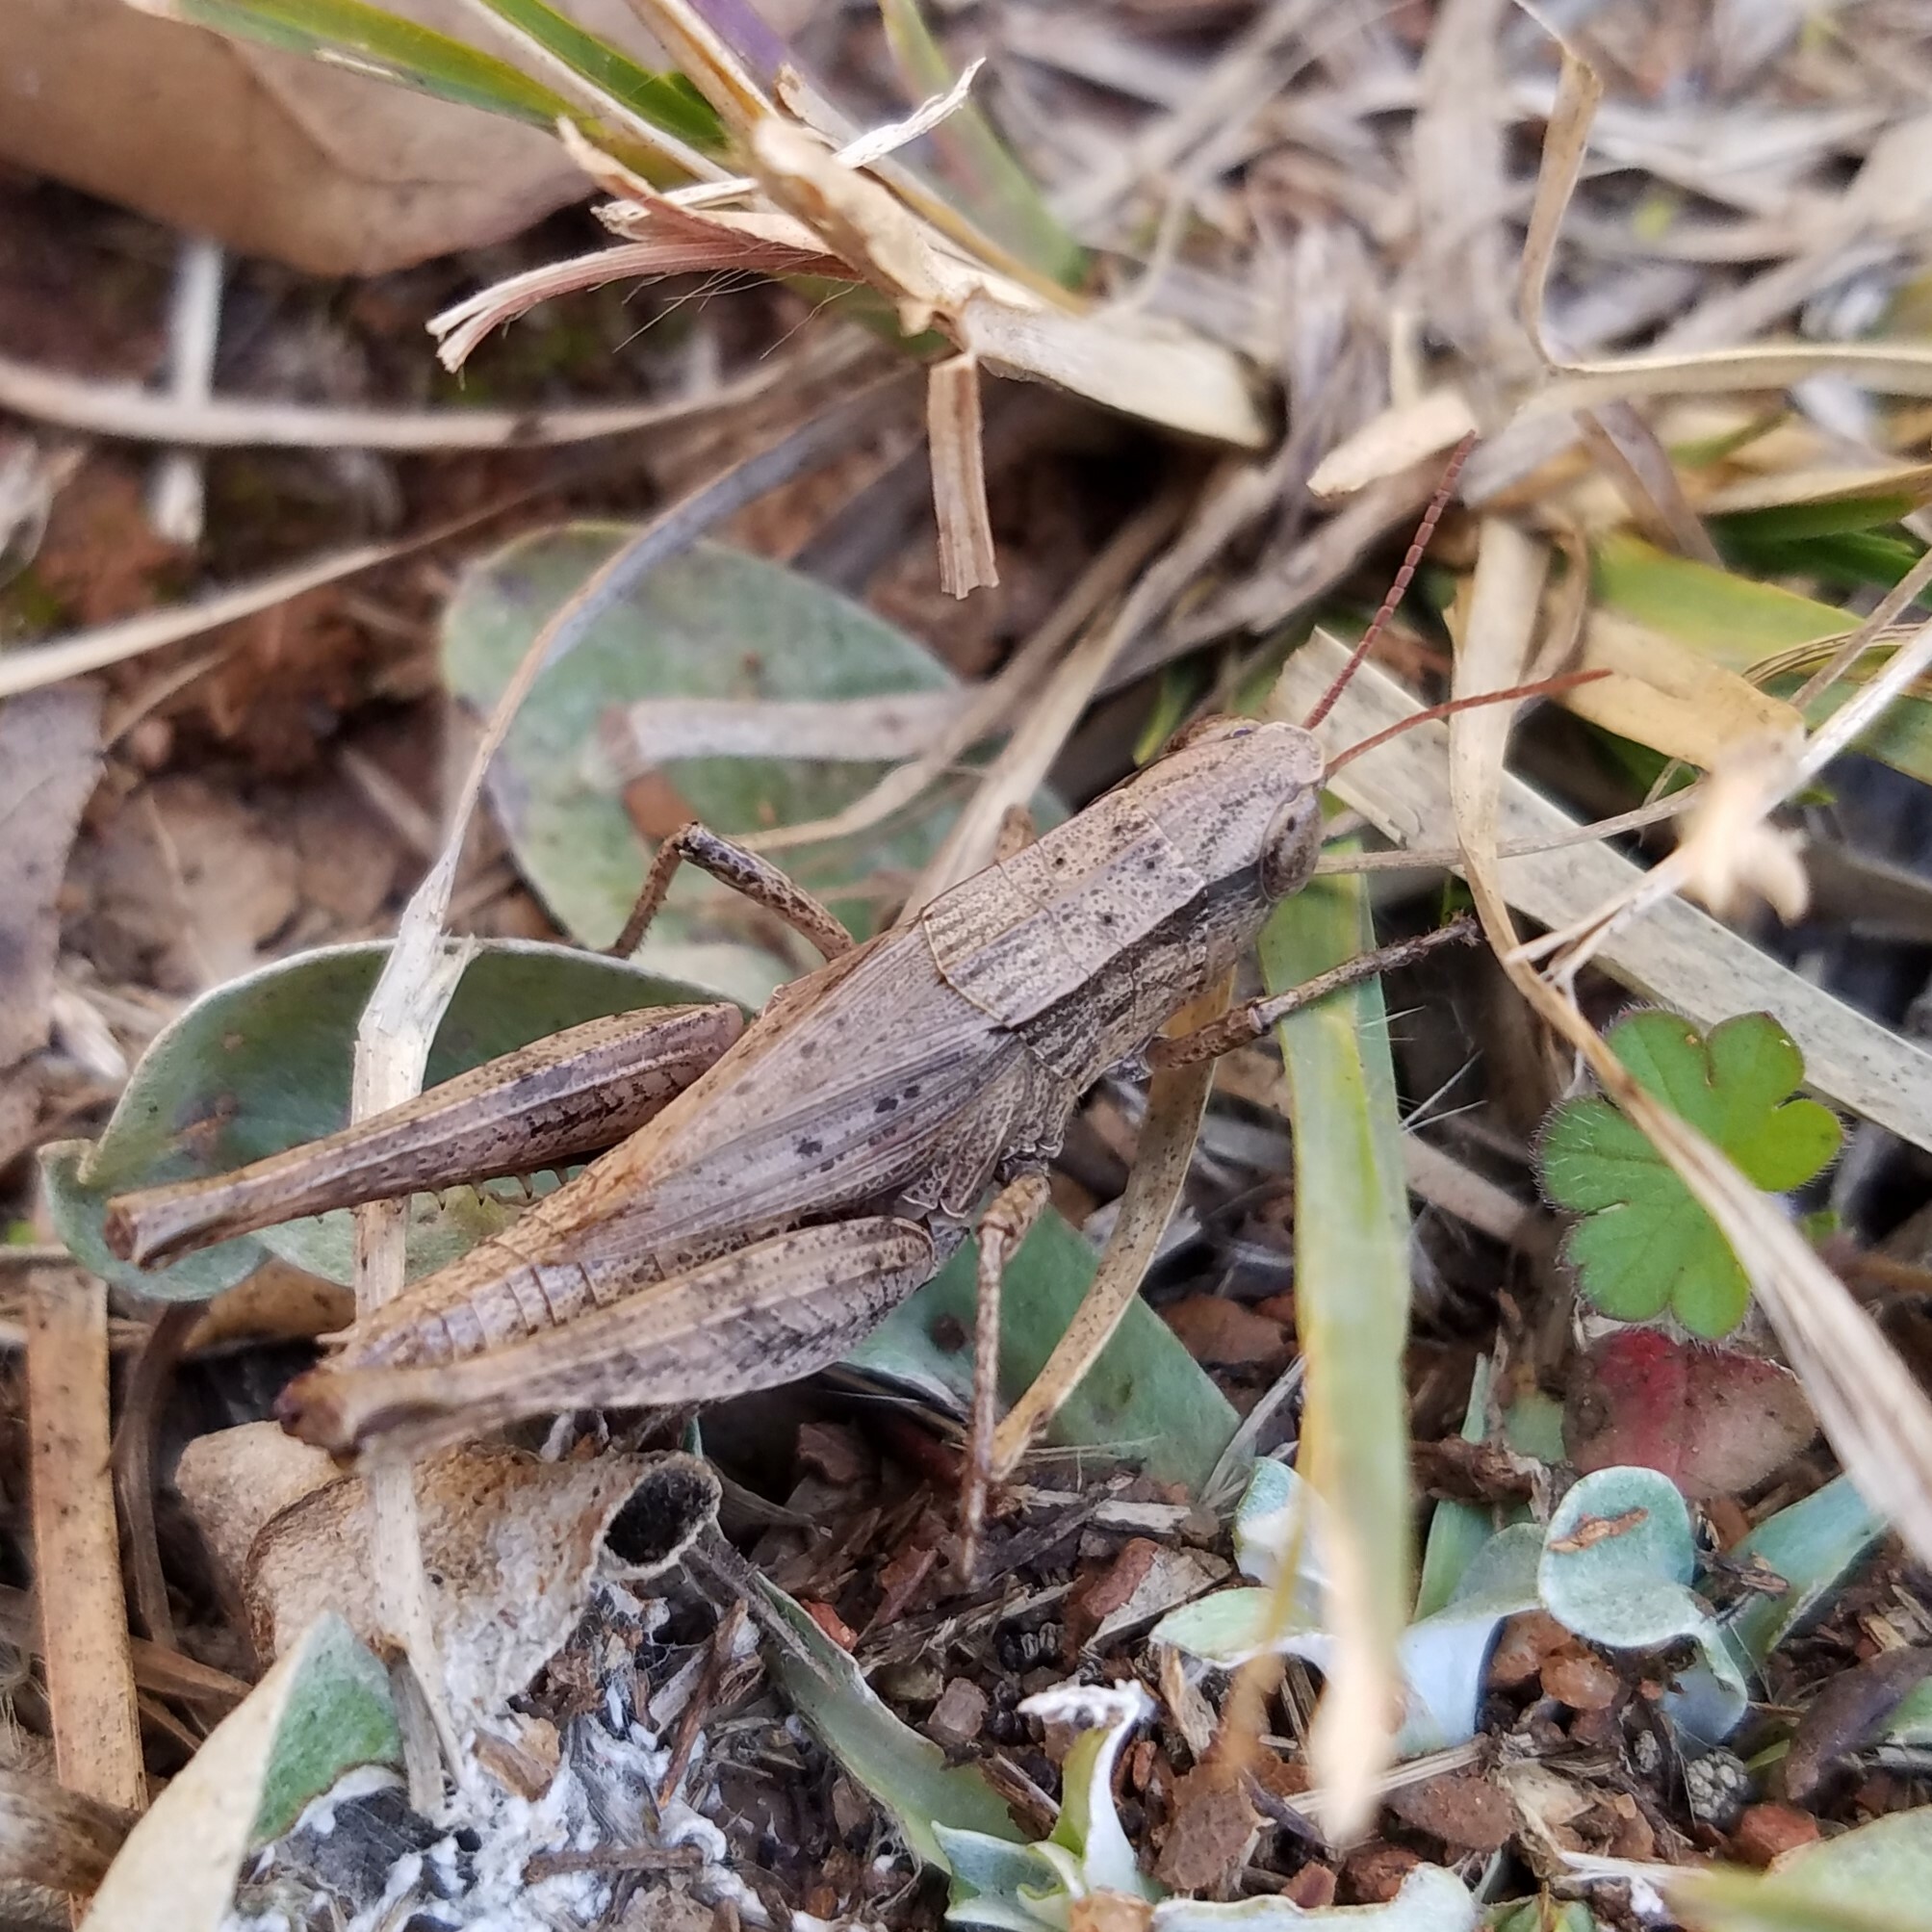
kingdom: Animalia
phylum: Arthropoda
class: Insecta
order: Orthoptera
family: Acrididae
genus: Dichromorpha
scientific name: Dichromorpha viridis
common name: Short-winged green grasshopper
